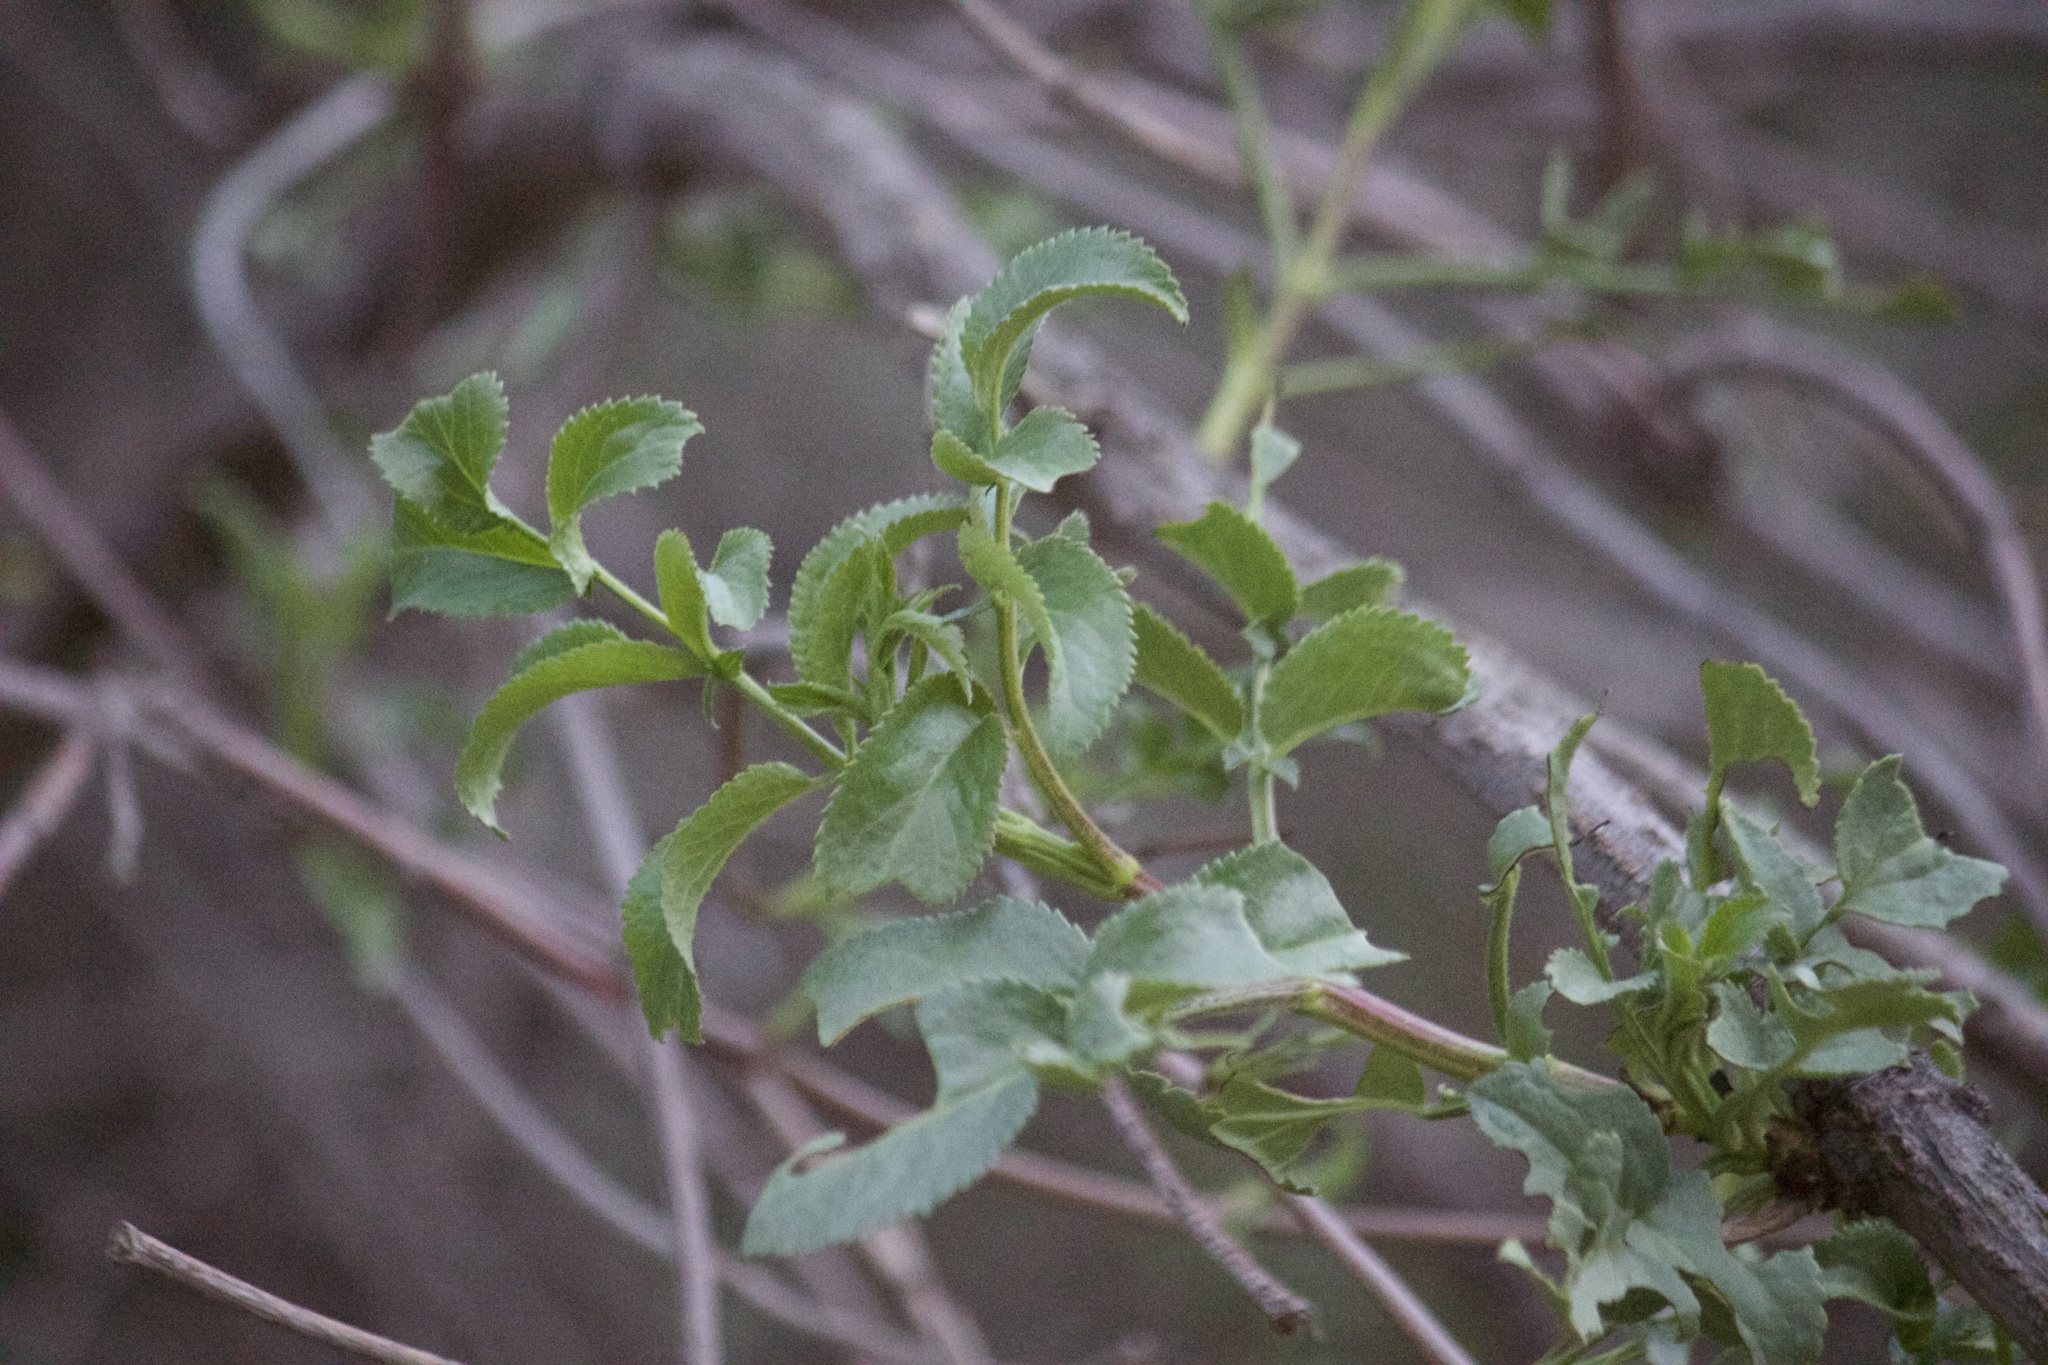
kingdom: Plantae
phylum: Tracheophyta
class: Magnoliopsida
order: Dipsacales
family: Viburnaceae
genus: Sambucus
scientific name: Sambucus cerulea
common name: Blue elder
